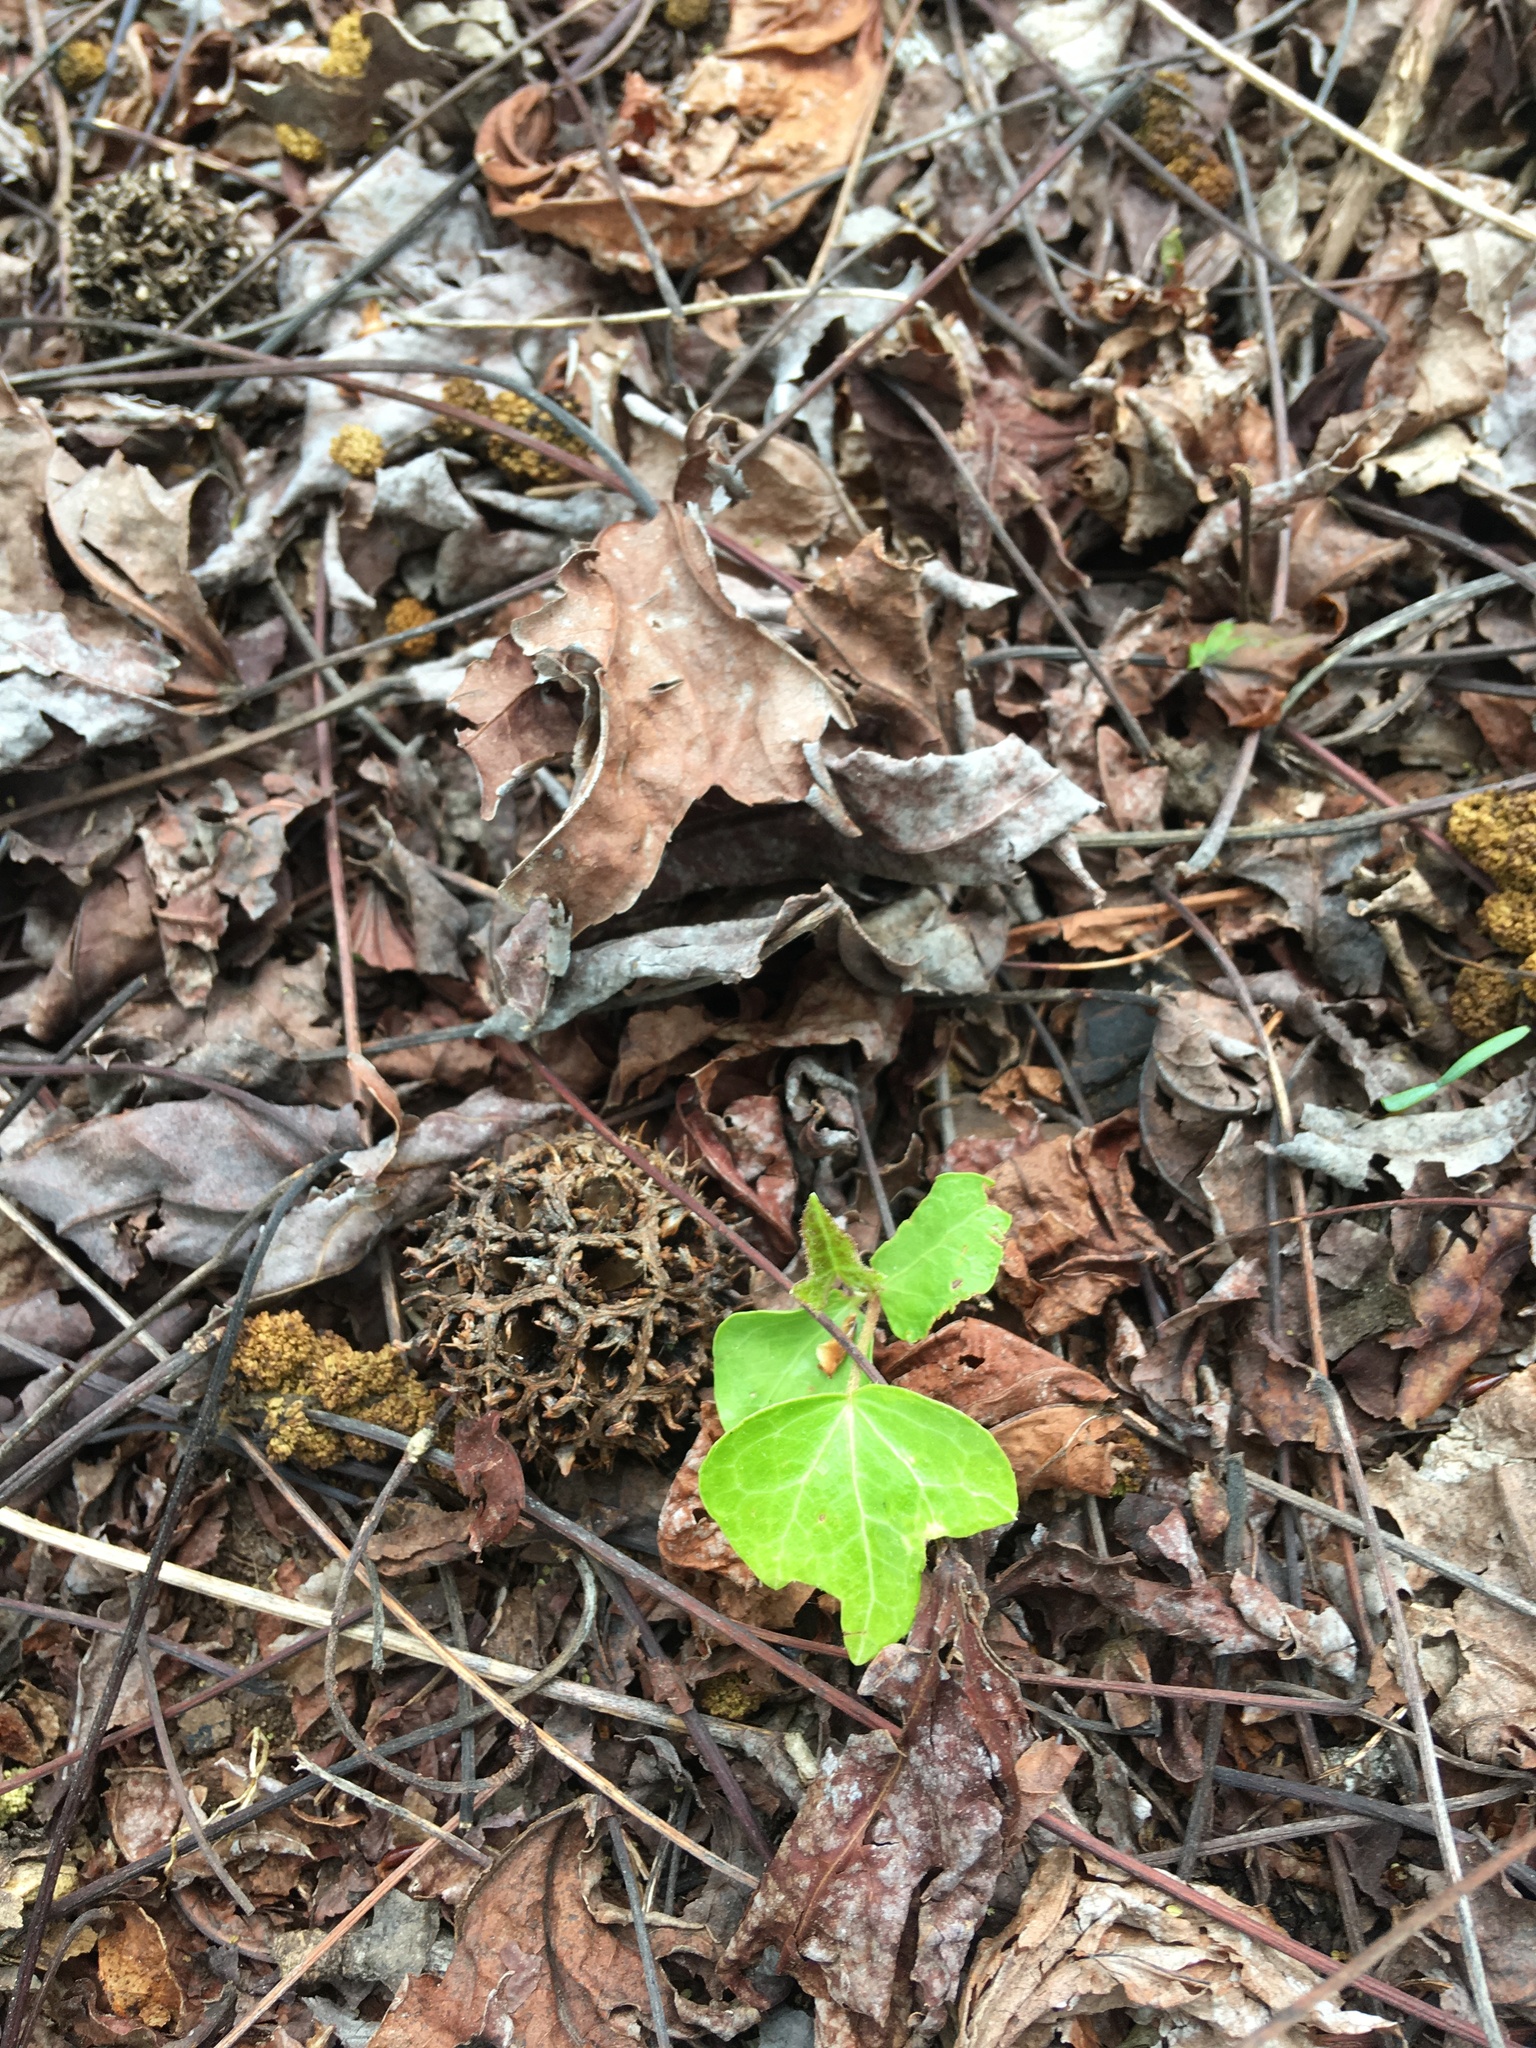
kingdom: Plantae
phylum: Tracheophyta
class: Magnoliopsida
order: Apiales
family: Araliaceae
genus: Hedera
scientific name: Hedera helix
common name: Ivy
